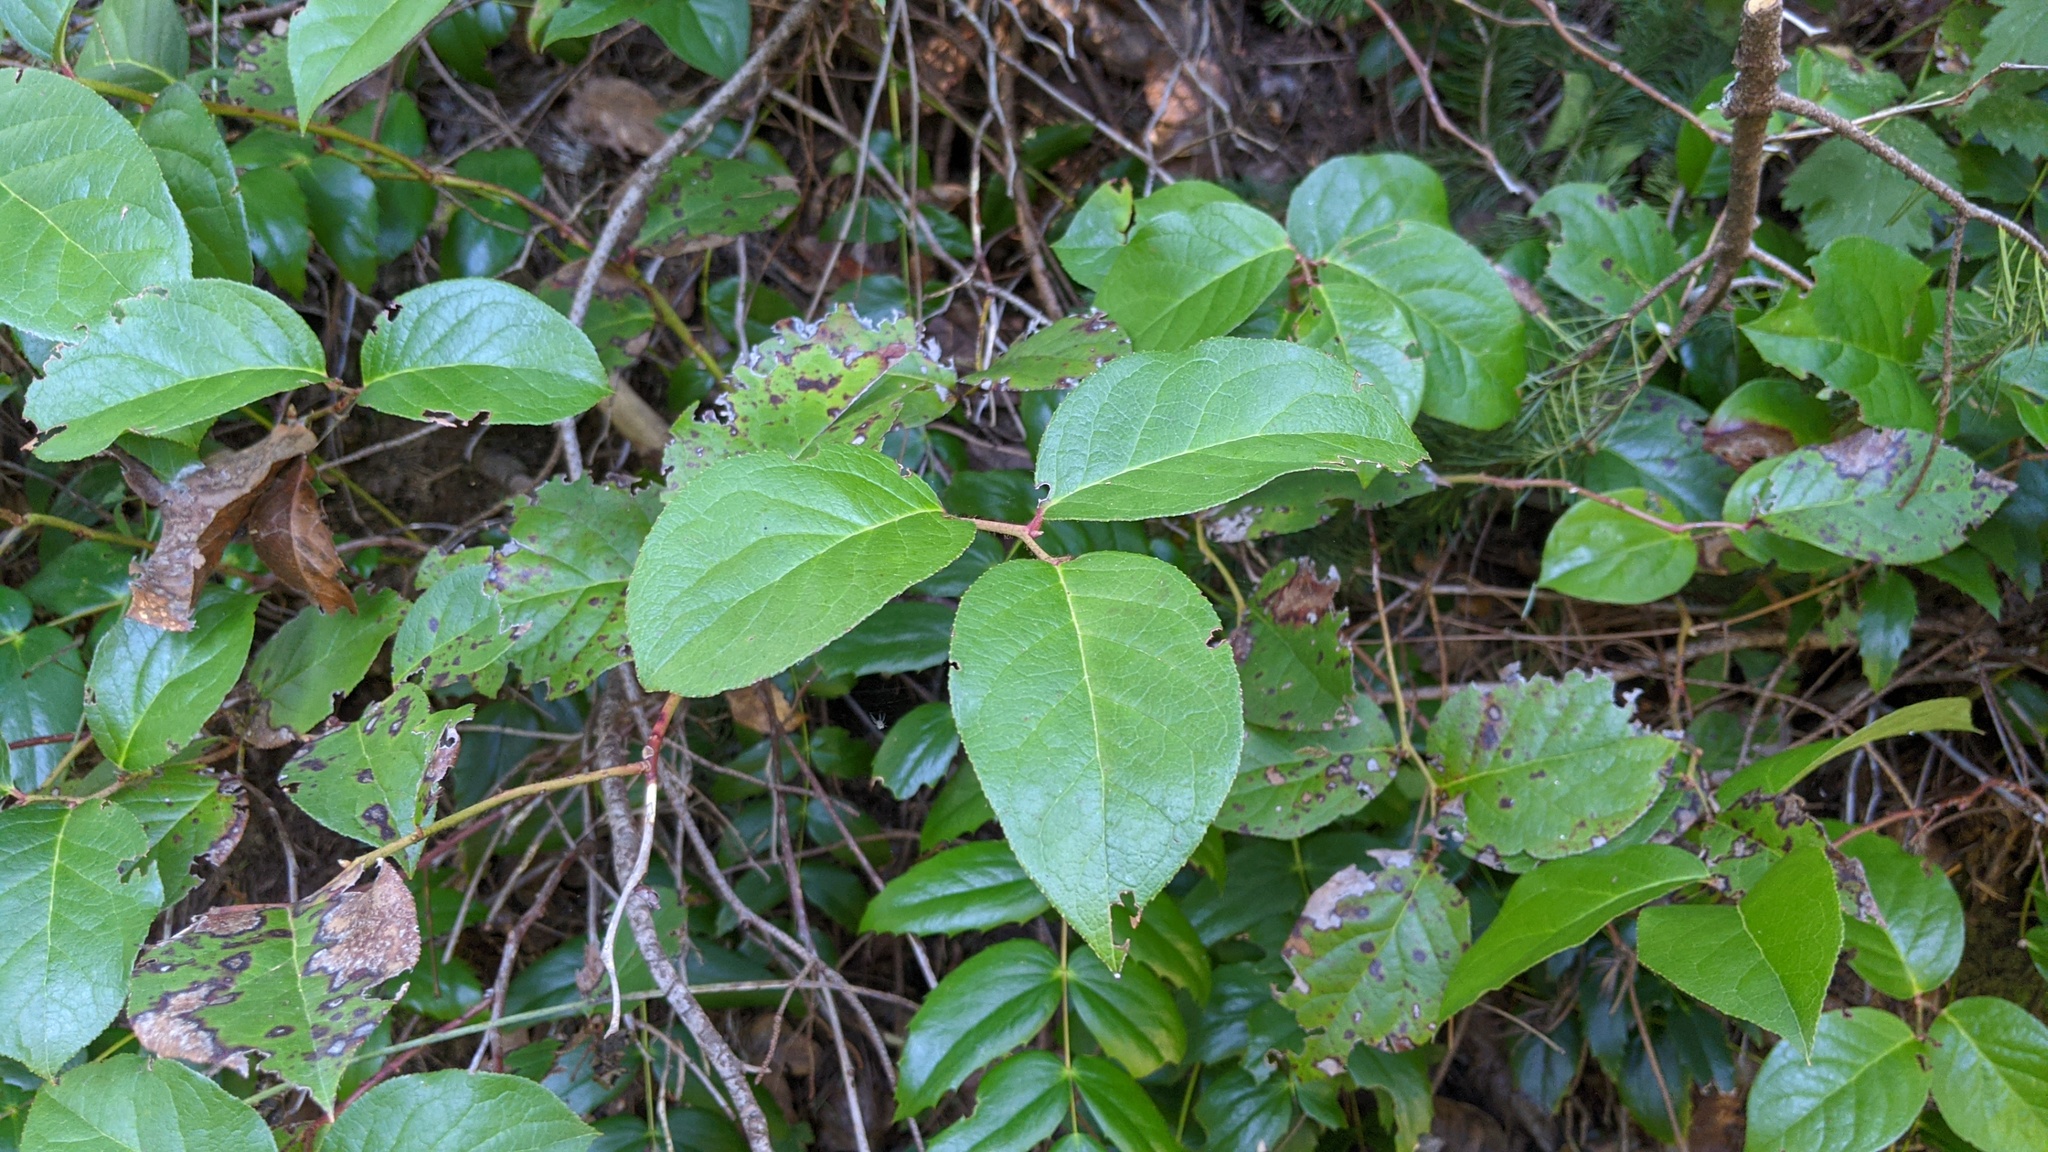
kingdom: Plantae
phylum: Tracheophyta
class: Magnoliopsida
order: Ericales
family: Ericaceae
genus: Gaultheria
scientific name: Gaultheria shallon
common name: Shallon
